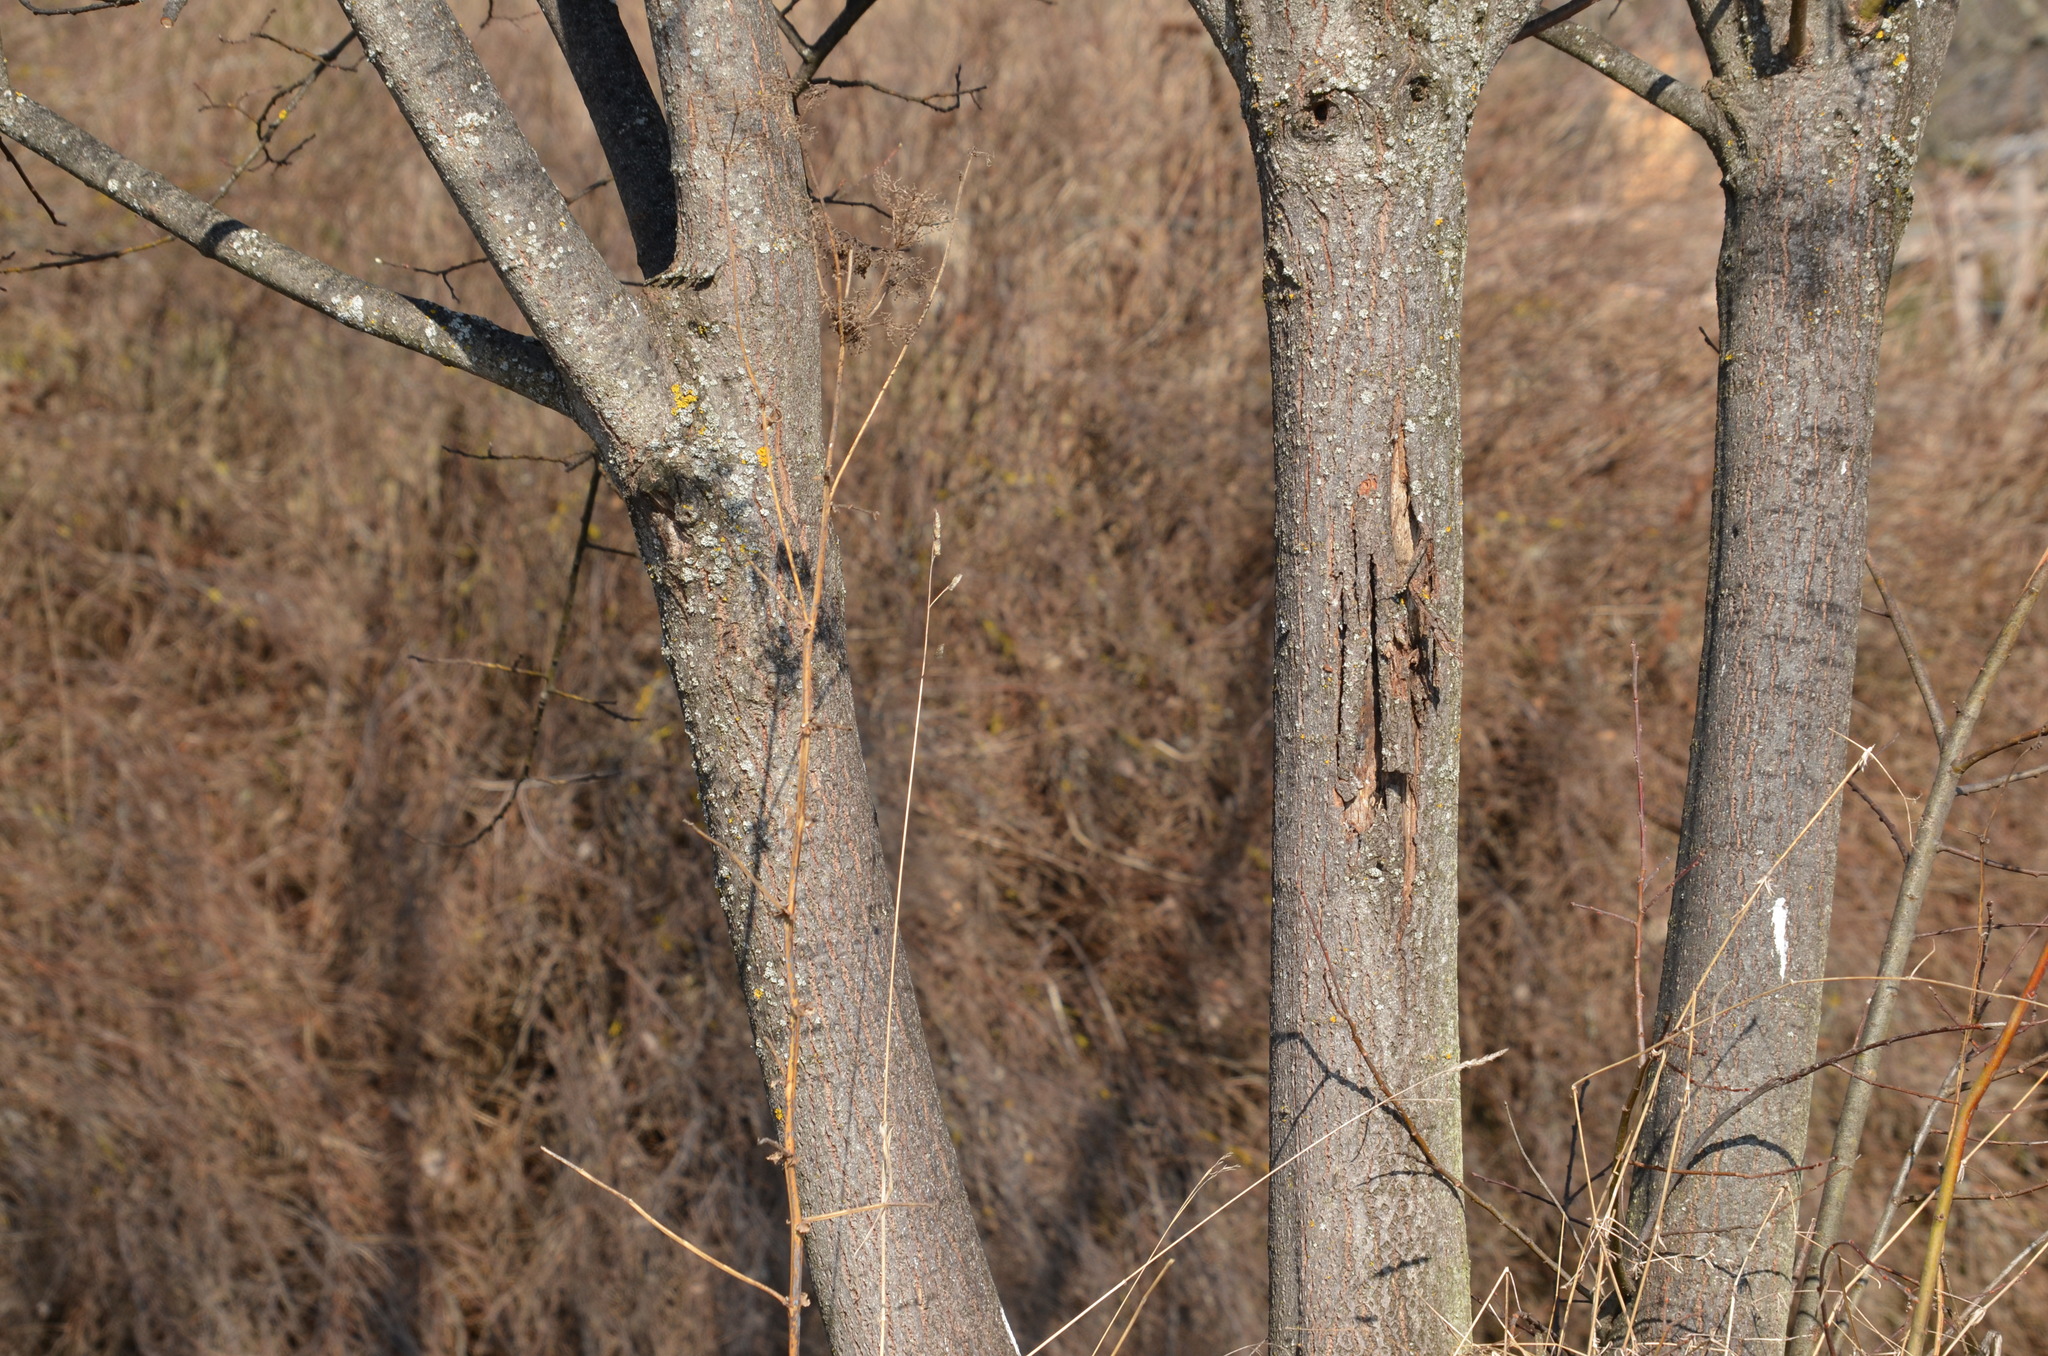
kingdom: Plantae
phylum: Tracheophyta
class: Magnoliopsida
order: Malpighiales
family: Salicaceae
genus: Salix
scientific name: Salix caprea
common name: Goat willow
